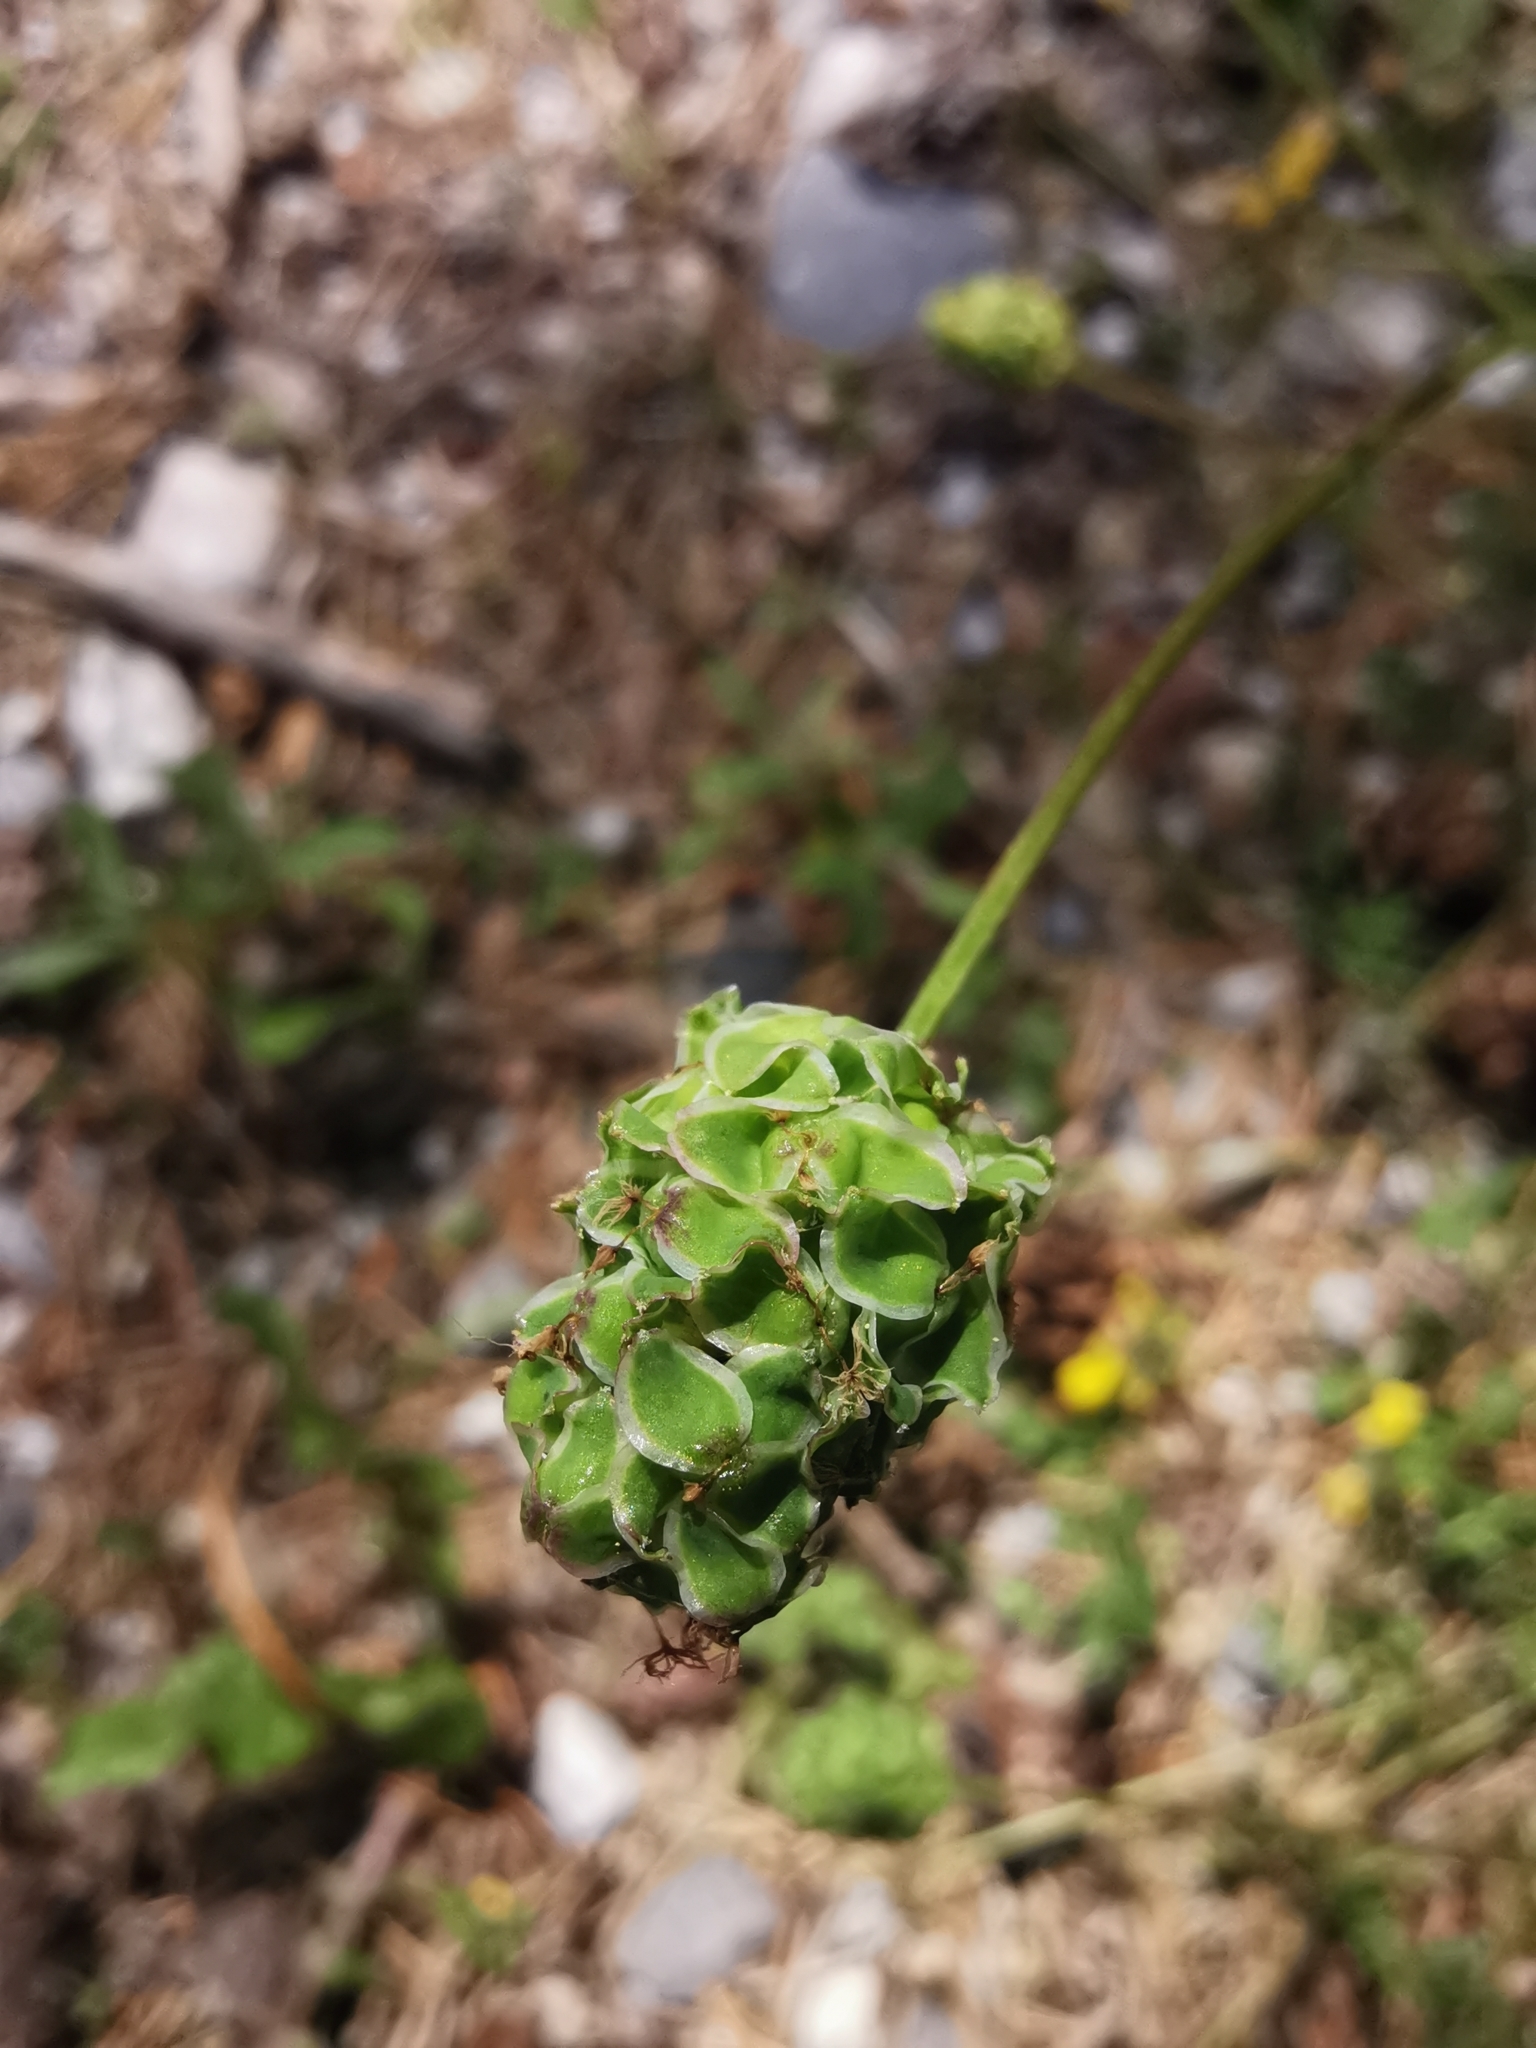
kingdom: Plantae
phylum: Tracheophyta
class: Magnoliopsida
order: Rosales
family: Rosaceae
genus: Poterium
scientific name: Poterium sanguisorba
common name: Salad burnet
